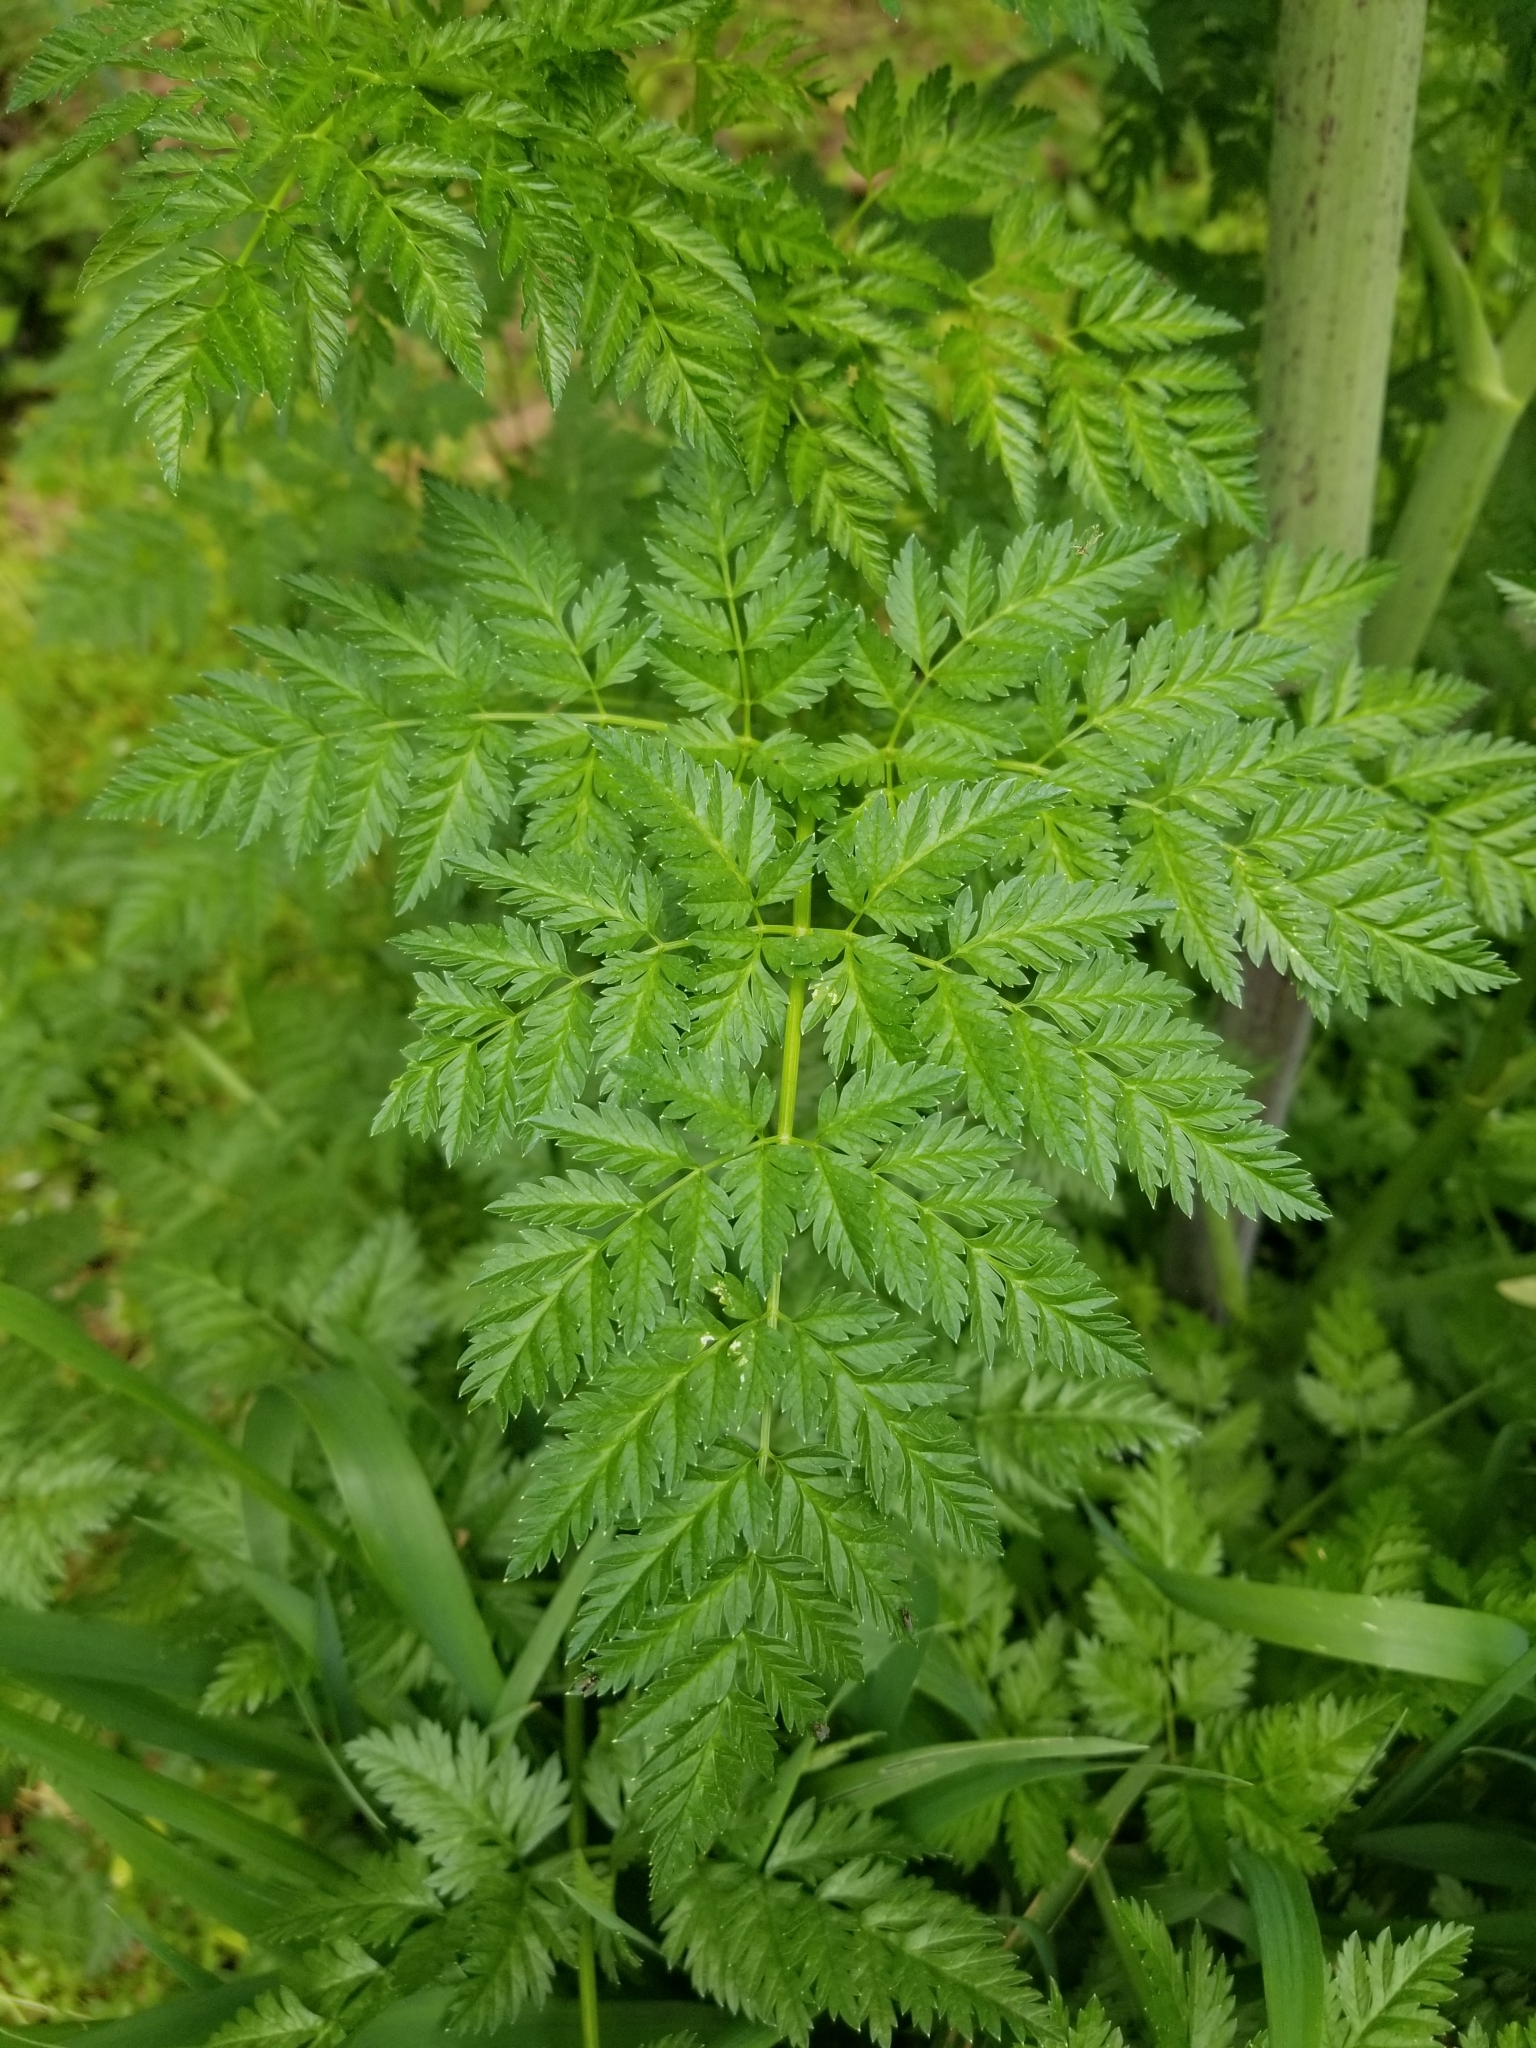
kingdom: Plantae
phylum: Tracheophyta
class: Magnoliopsida
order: Apiales
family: Apiaceae
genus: Conium
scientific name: Conium maculatum
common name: Hemlock
